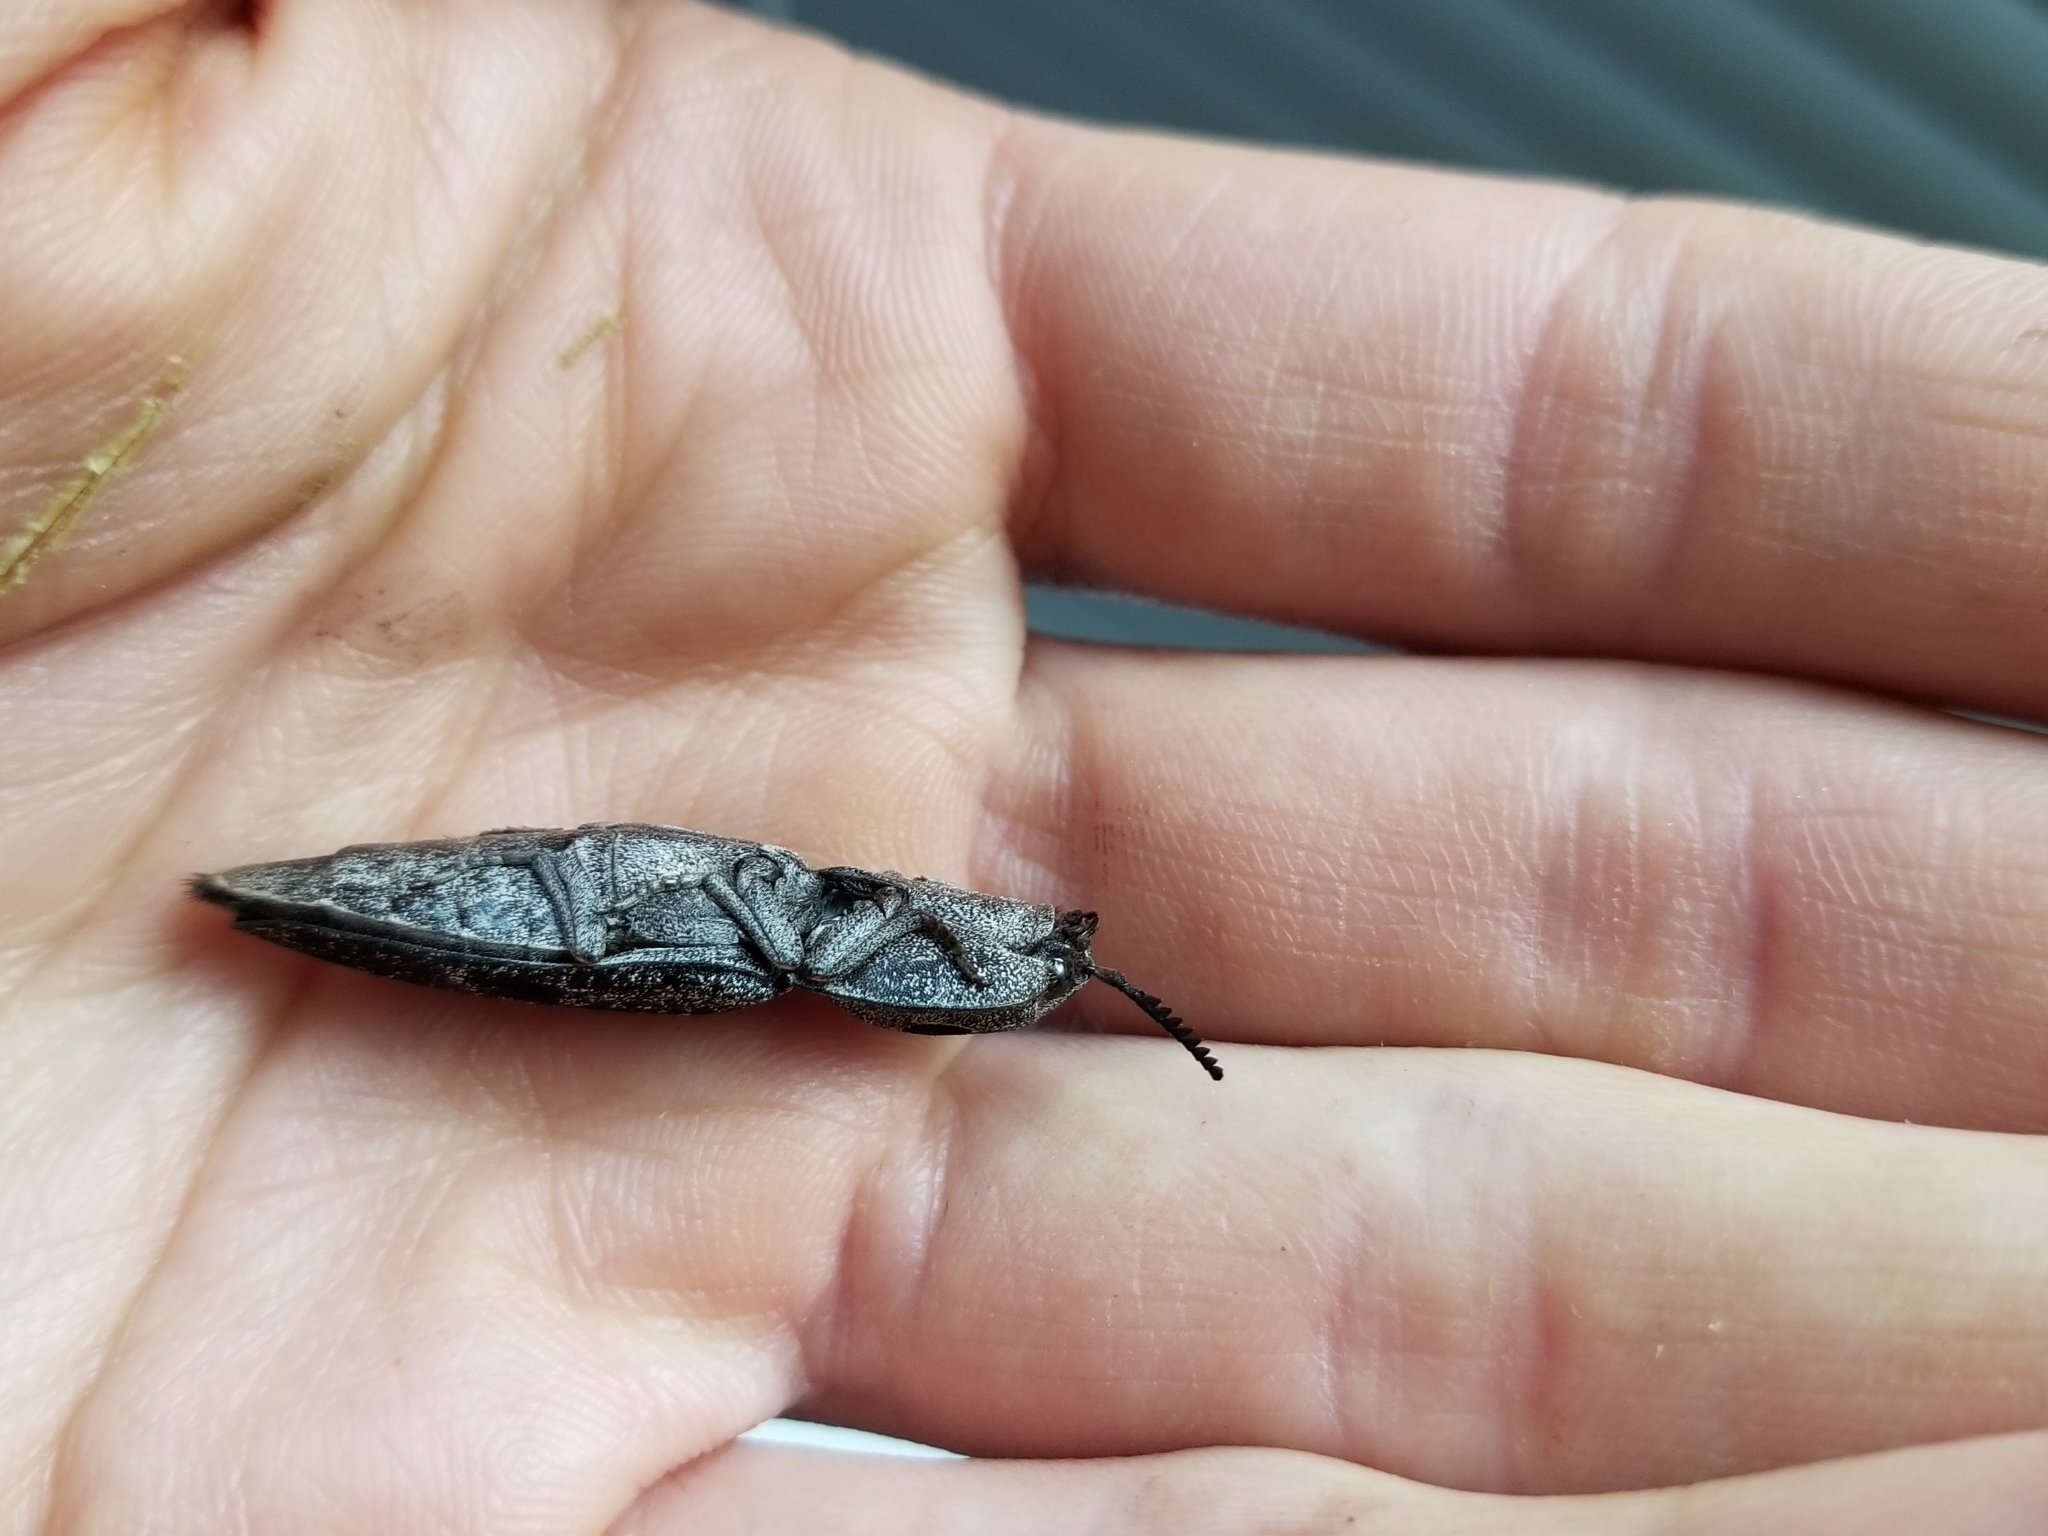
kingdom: Animalia
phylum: Arthropoda
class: Insecta
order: Coleoptera
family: Elateridae
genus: Alaus
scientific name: Alaus melanops
